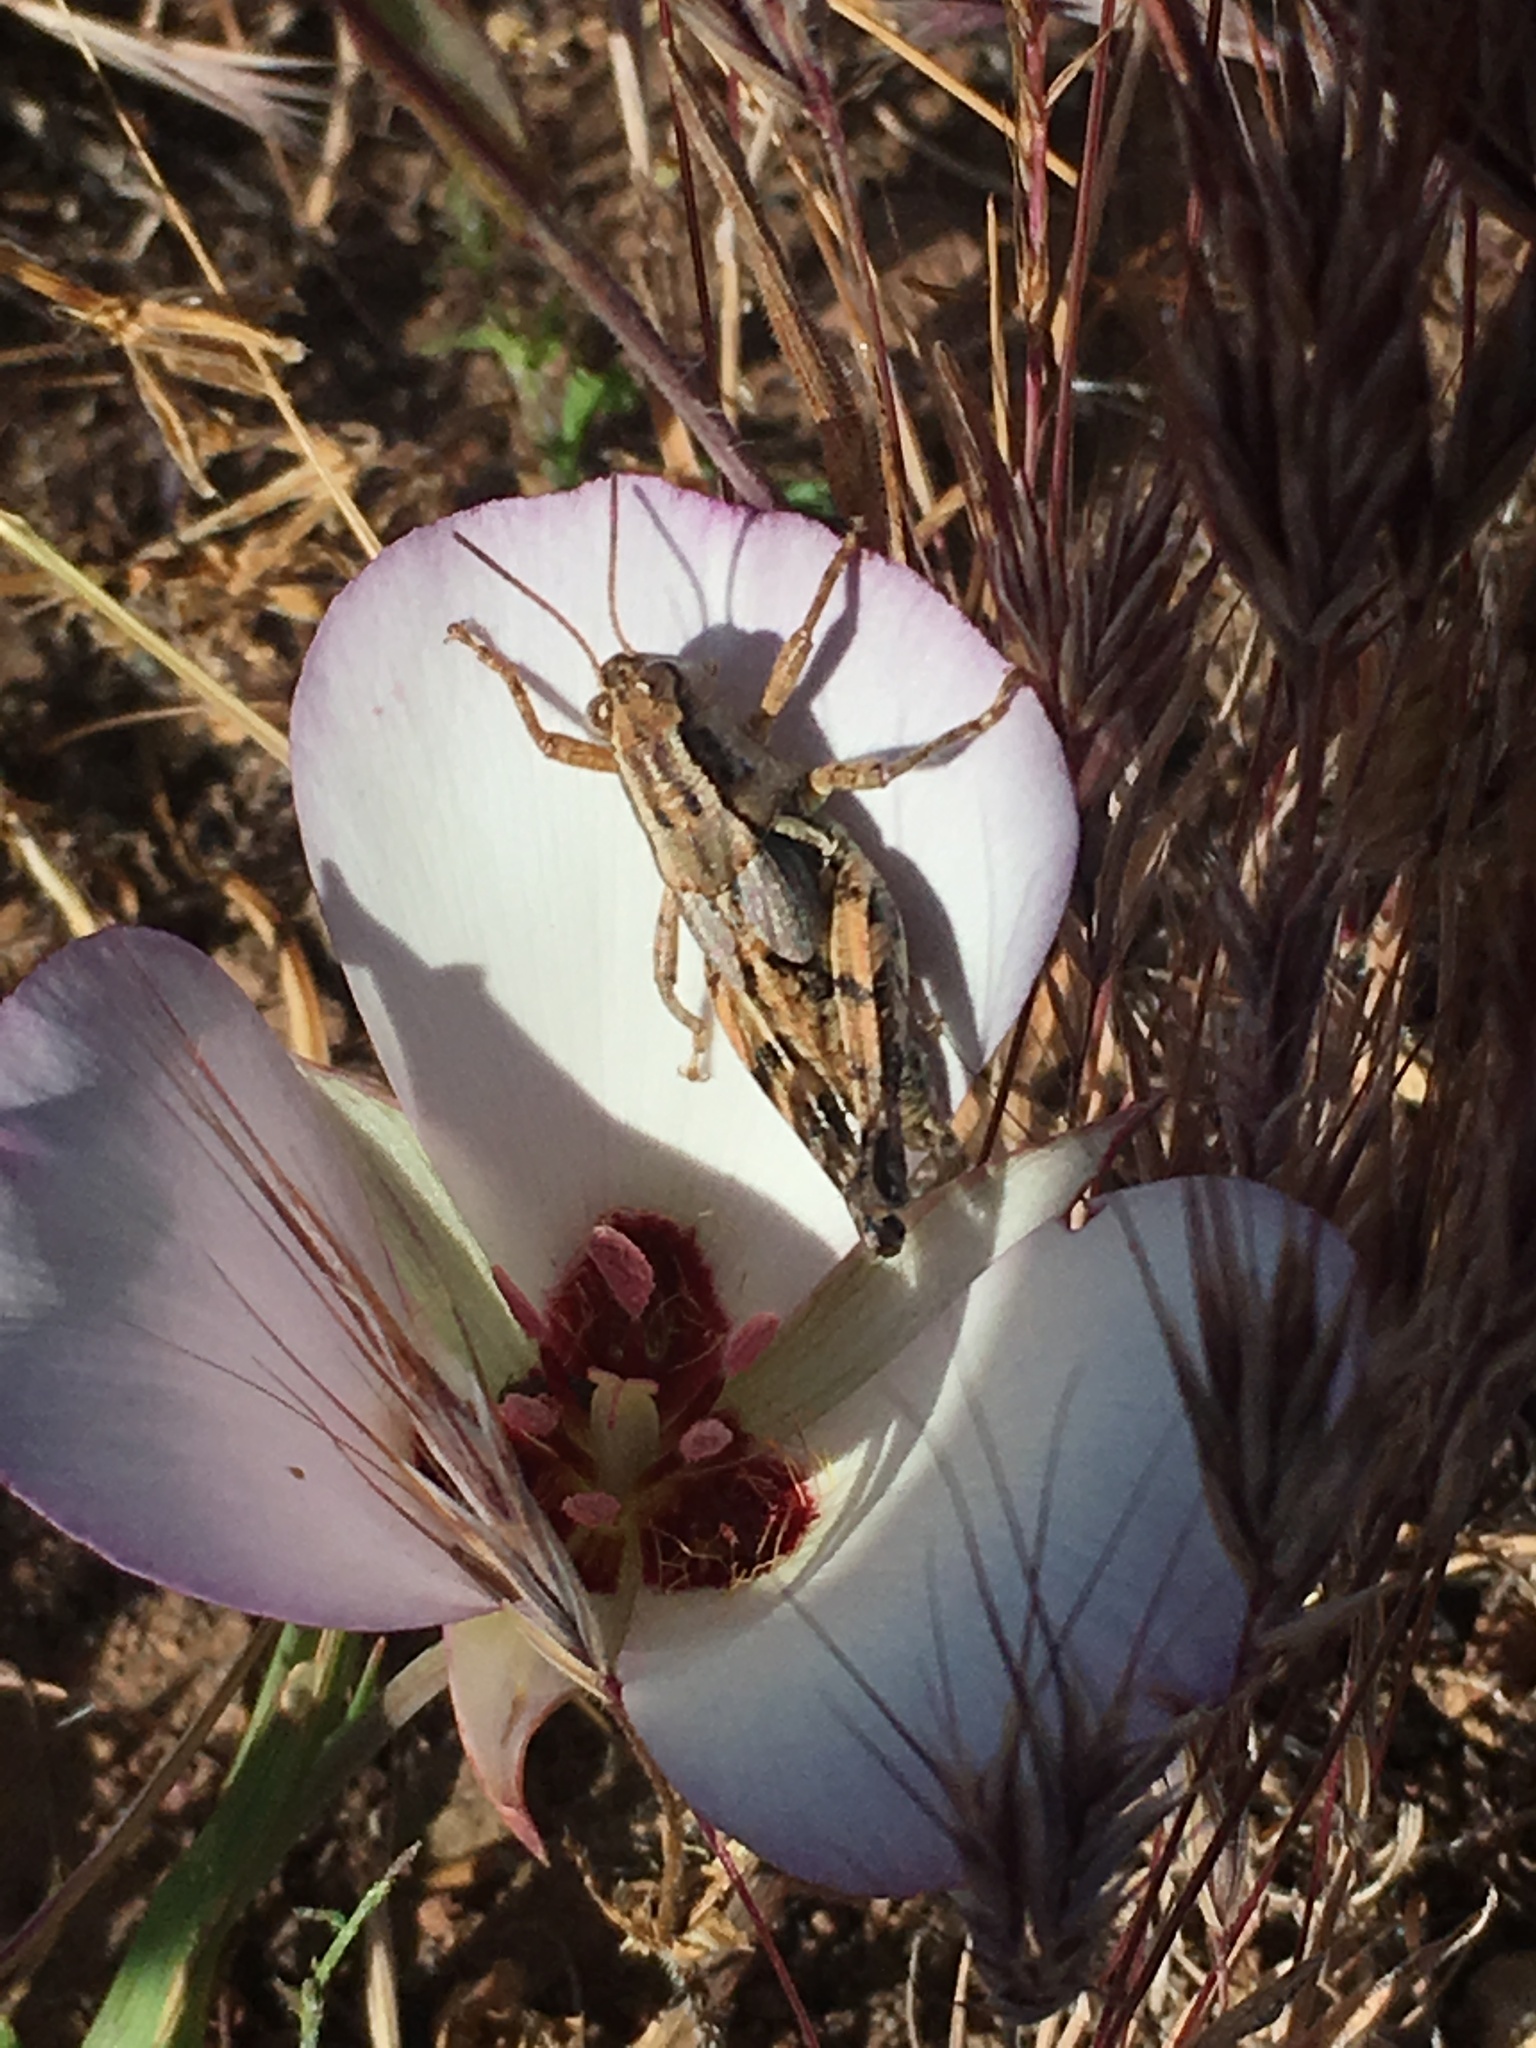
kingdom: Plantae
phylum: Tracheophyta
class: Liliopsida
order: Liliales
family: Liliaceae
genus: Calochortus
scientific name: Calochortus catalinae
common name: Catalina mariposa-lily
